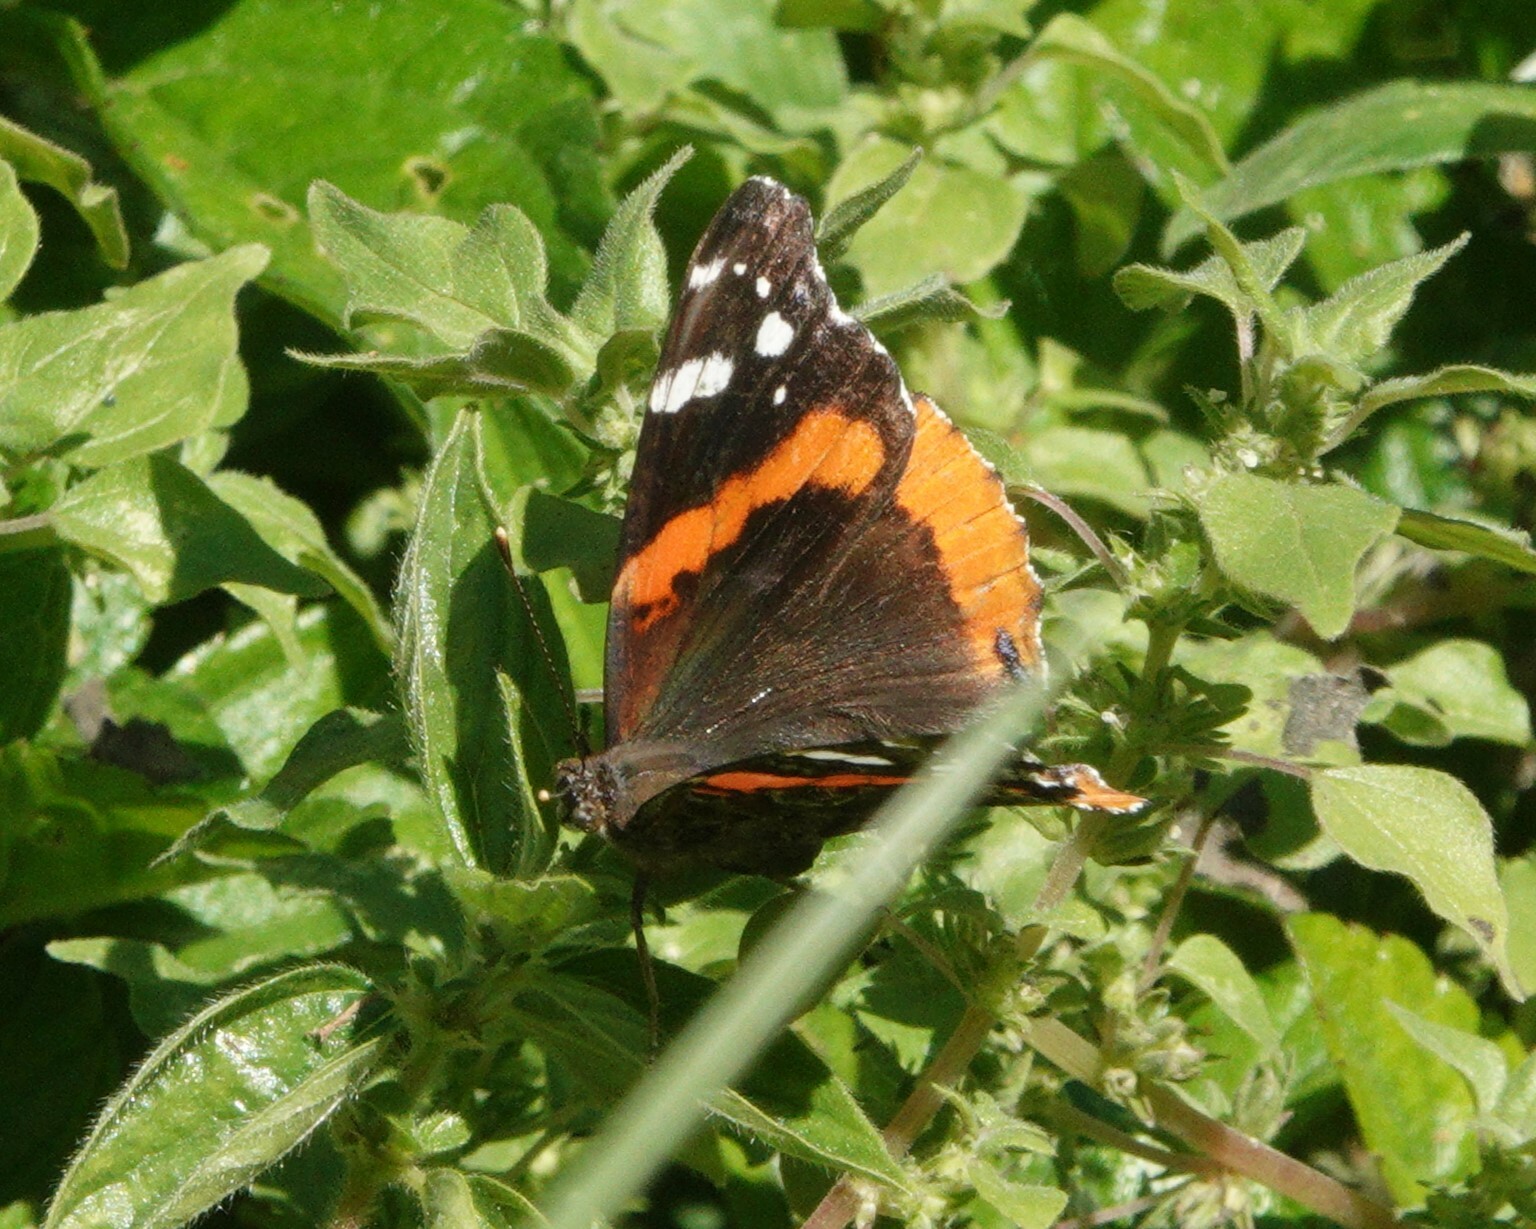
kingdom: Animalia
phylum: Arthropoda
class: Insecta
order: Lepidoptera
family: Nymphalidae
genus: Vanessa
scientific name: Vanessa atalanta
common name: Red admiral
